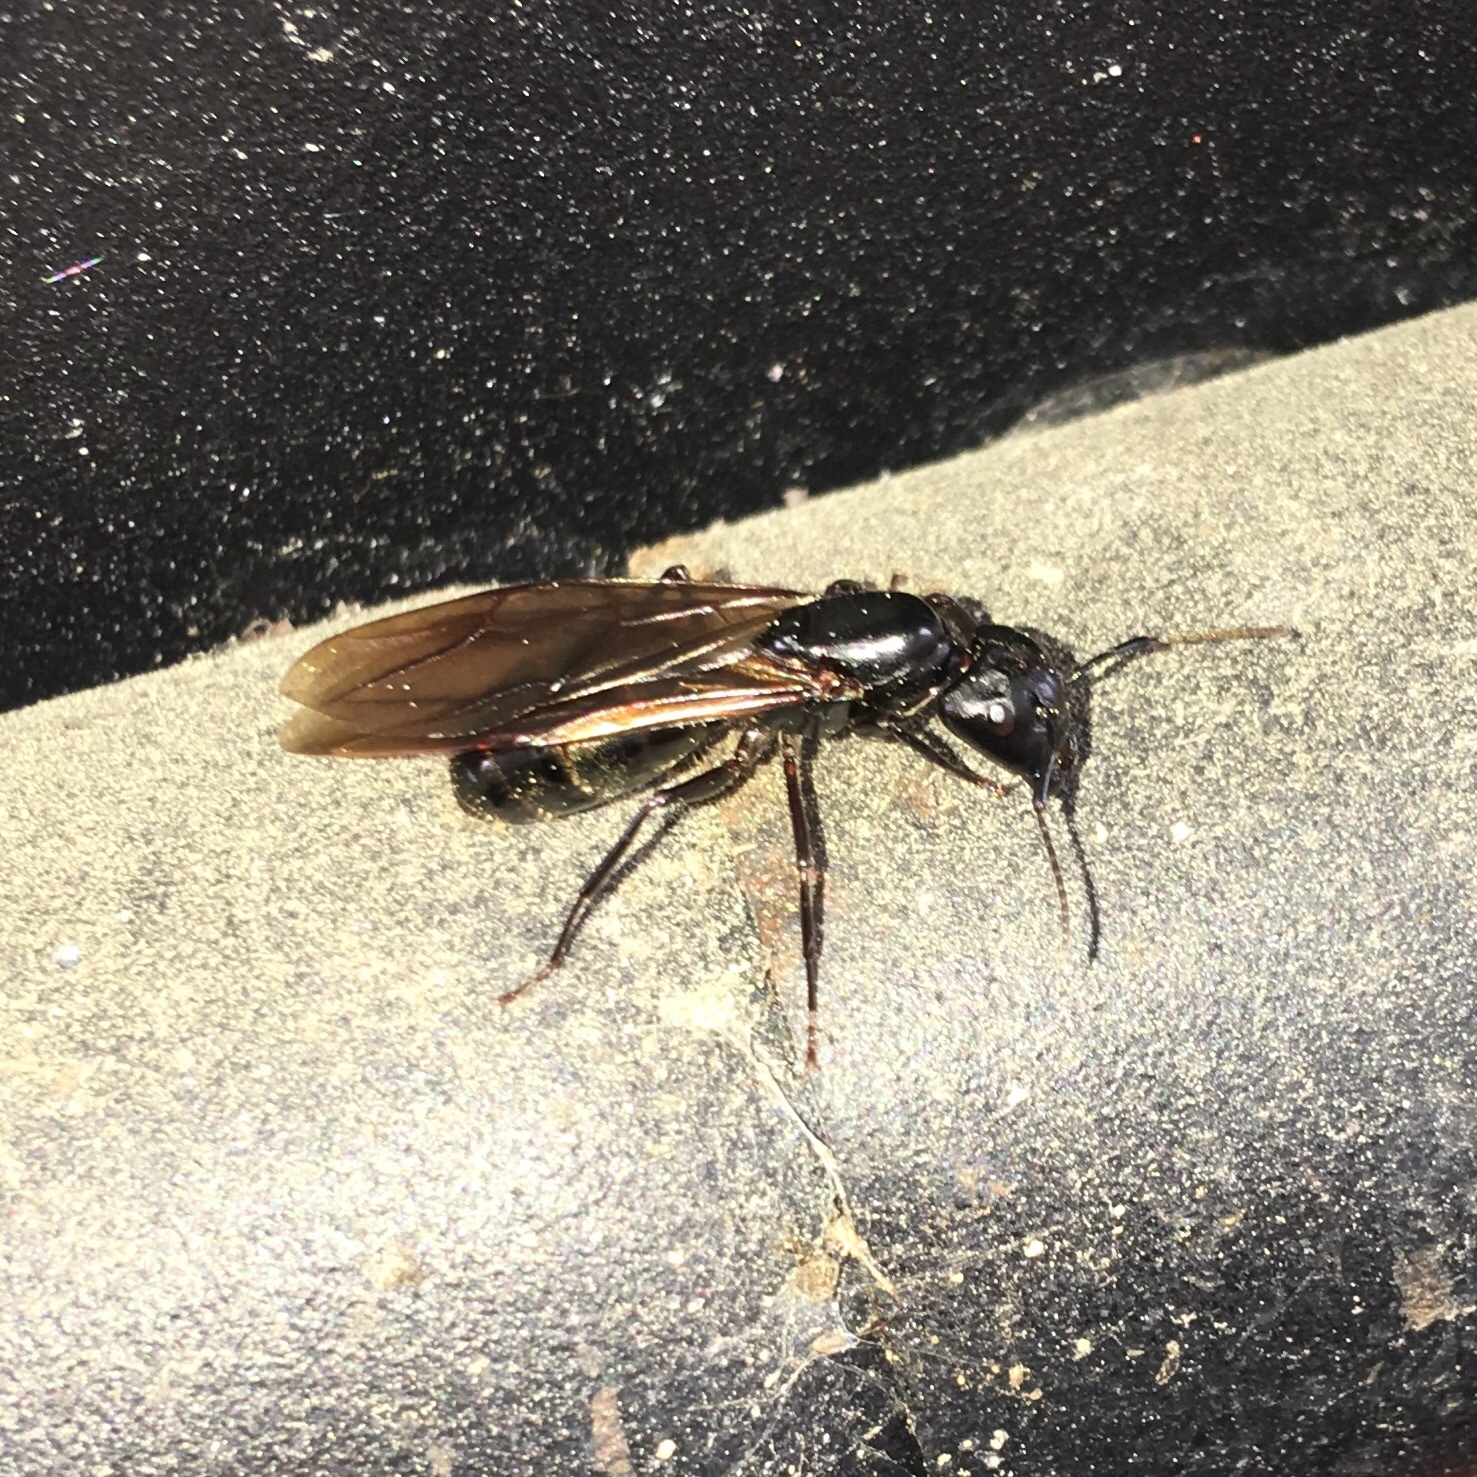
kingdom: Animalia
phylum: Arthropoda
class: Insecta
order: Hymenoptera
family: Formicidae
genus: Camponotus
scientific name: Camponotus pennsylvanicus
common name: Black carpenter ant
